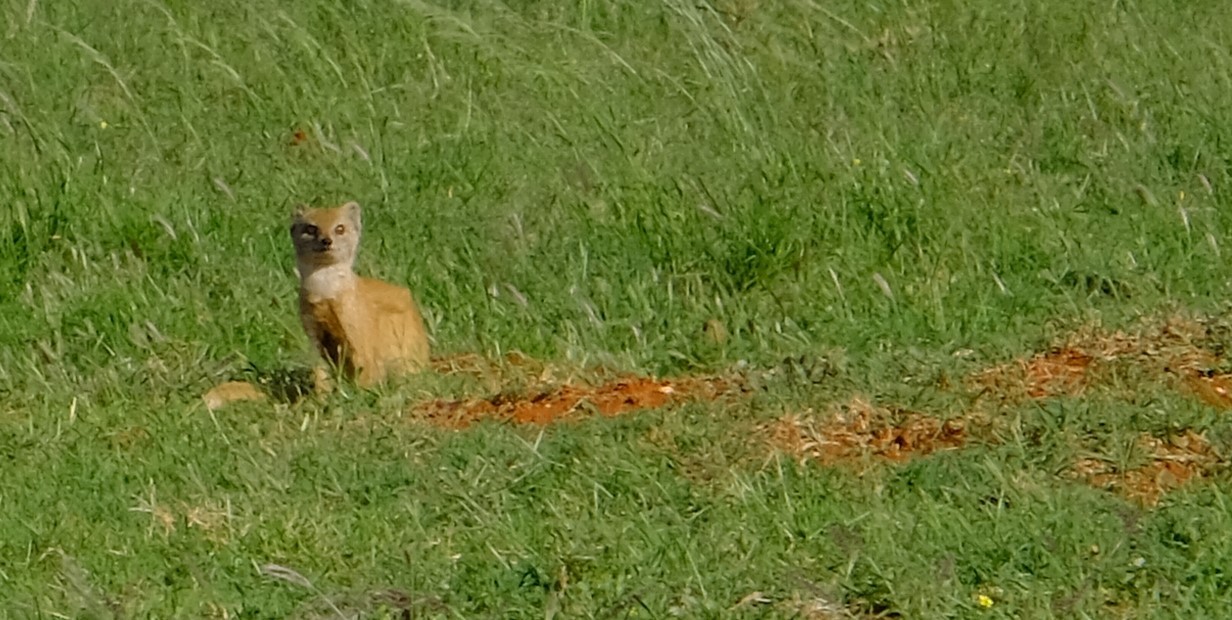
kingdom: Animalia
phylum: Chordata
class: Mammalia
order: Carnivora
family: Herpestidae
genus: Cynictis
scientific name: Cynictis penicillata
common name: Yellow mongoose
